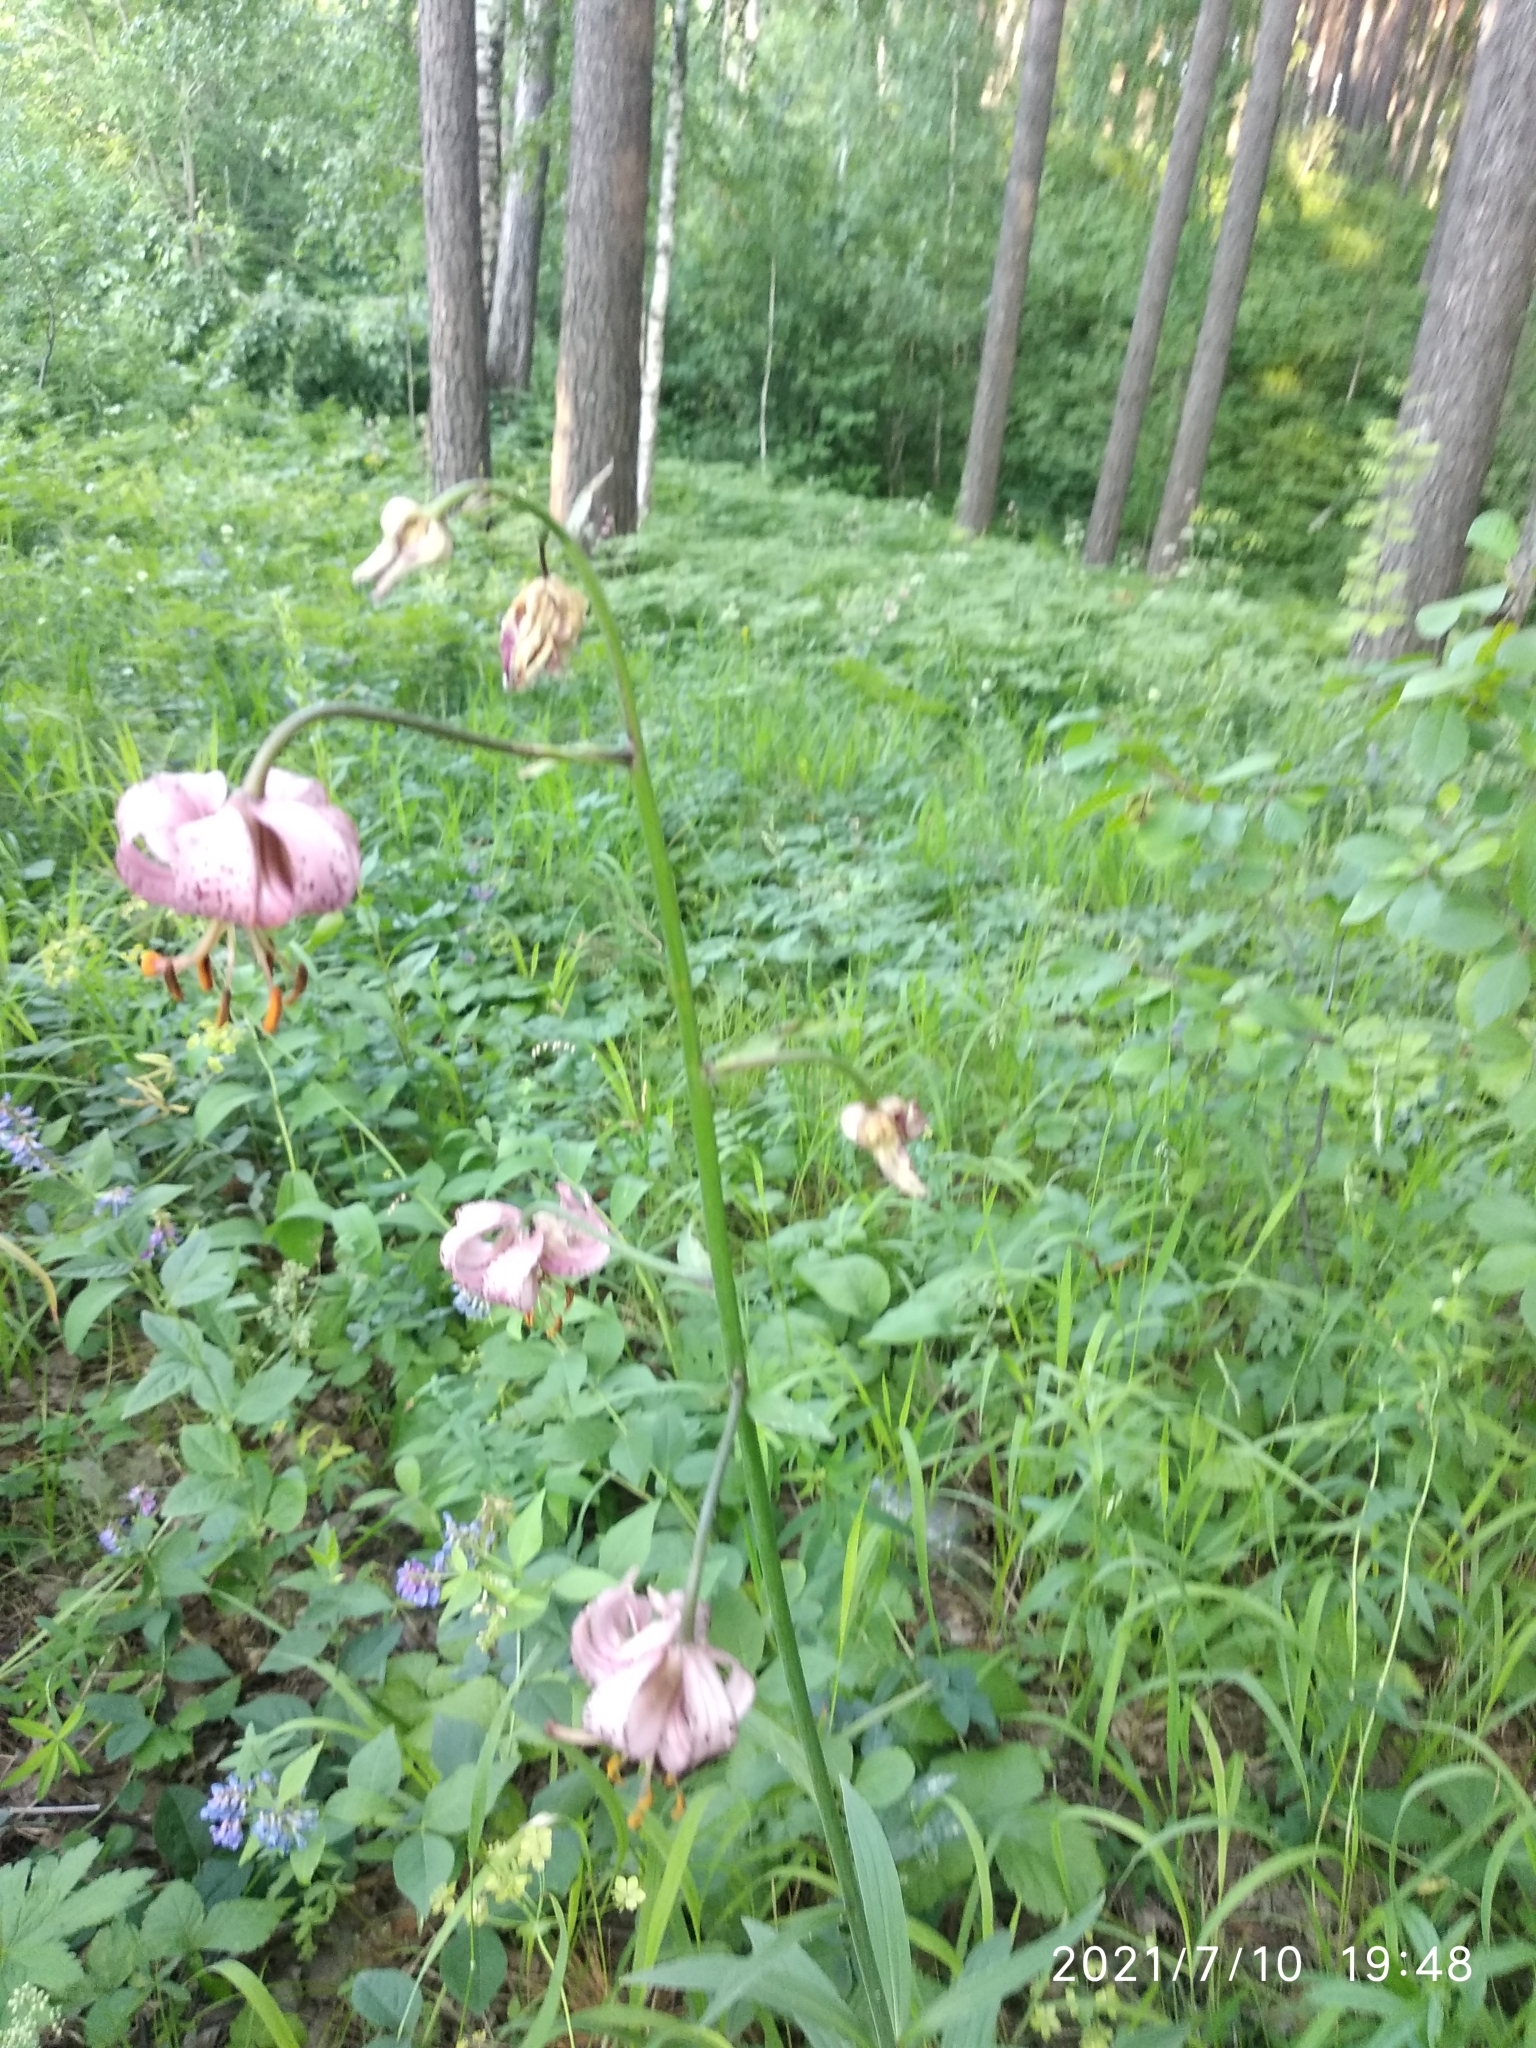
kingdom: Plantae
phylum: Tracheophyta
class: Liliopsida
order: Liliales
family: Liliaceae
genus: Lilium
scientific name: Lilium martagon
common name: Martagon lily
